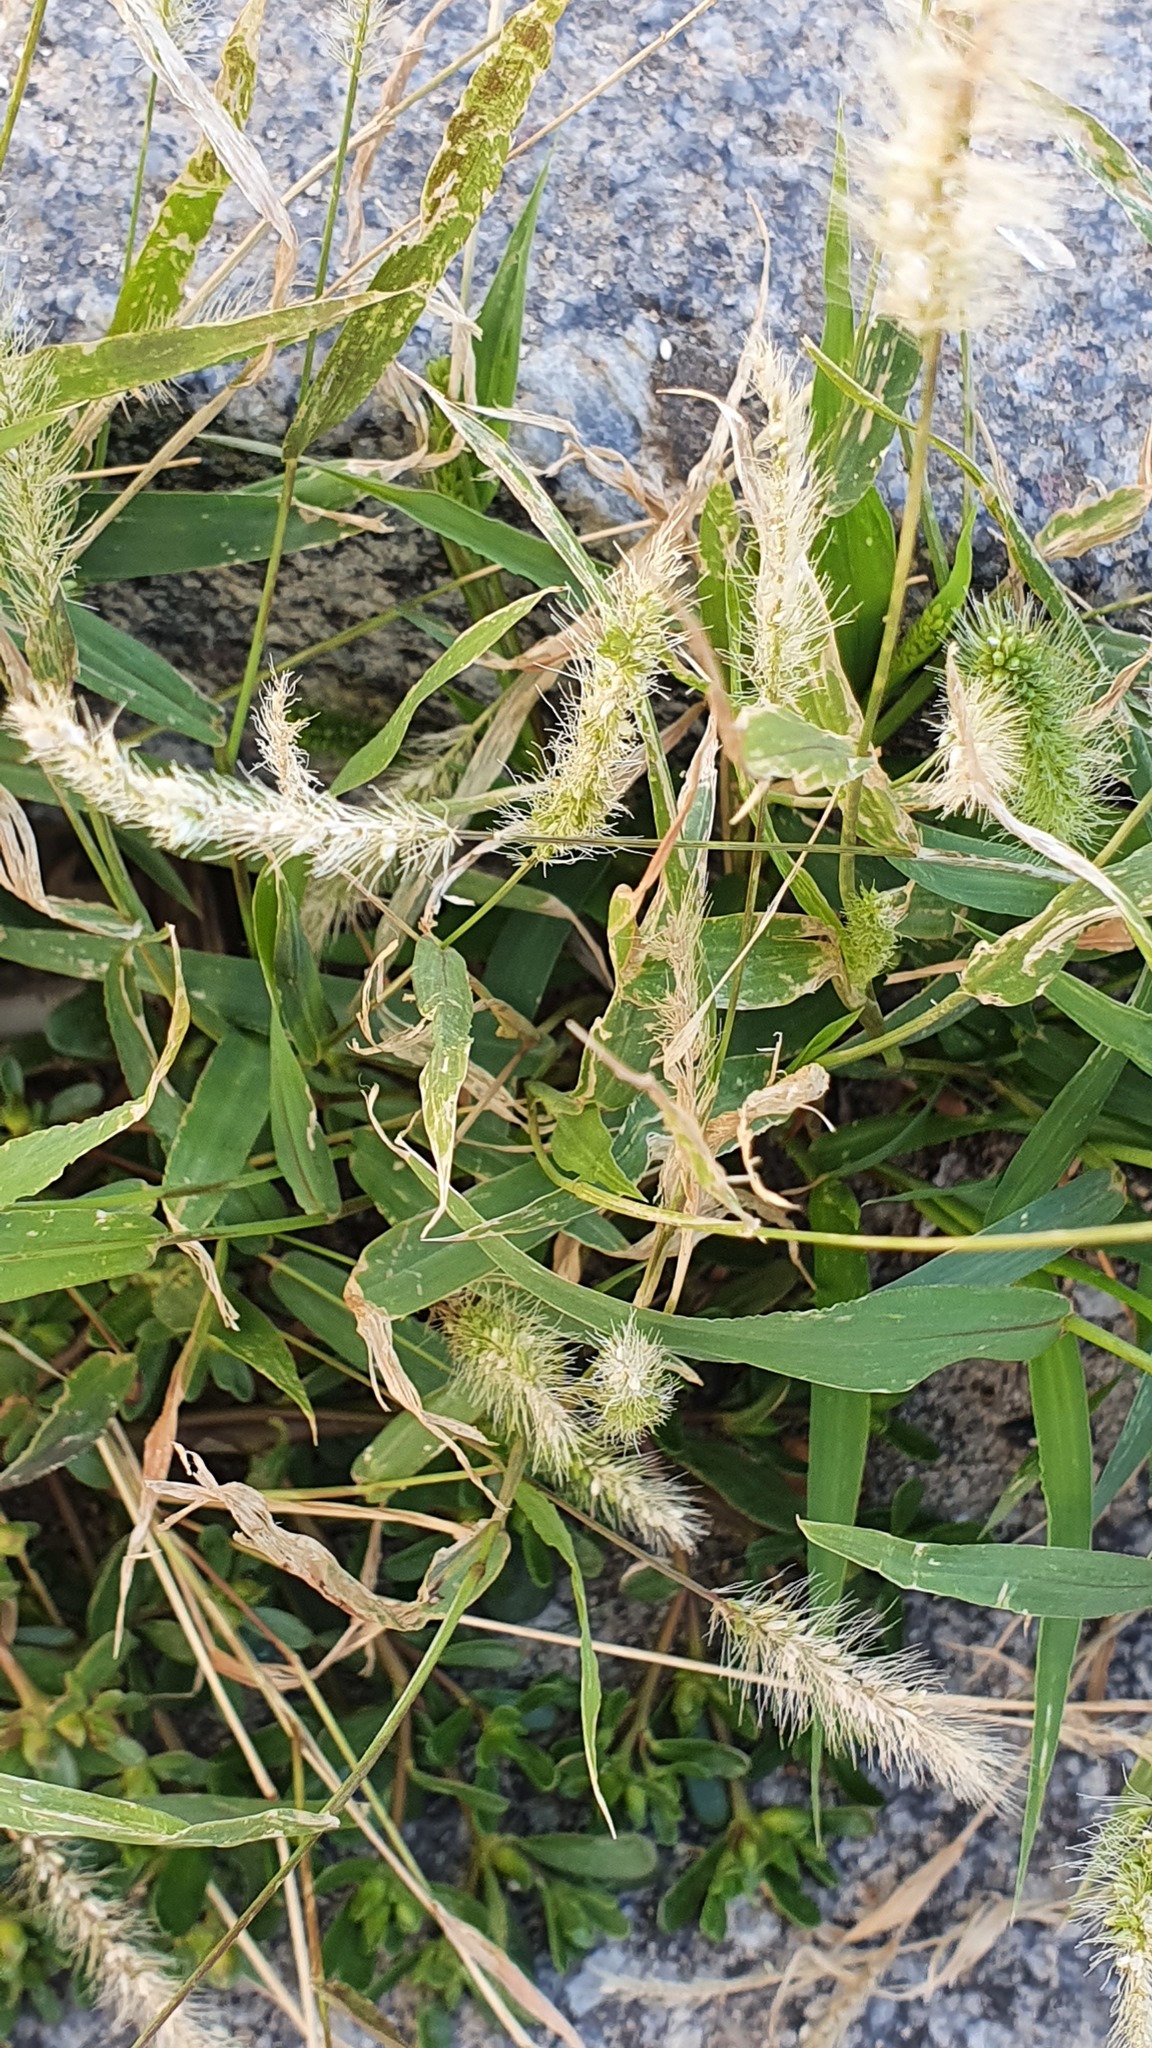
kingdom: Plantae
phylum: Tracheophyta
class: Liliopsida
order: Poales
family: Poaceae
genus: Setaria
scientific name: Setaria viridis
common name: Green bristlegrass
